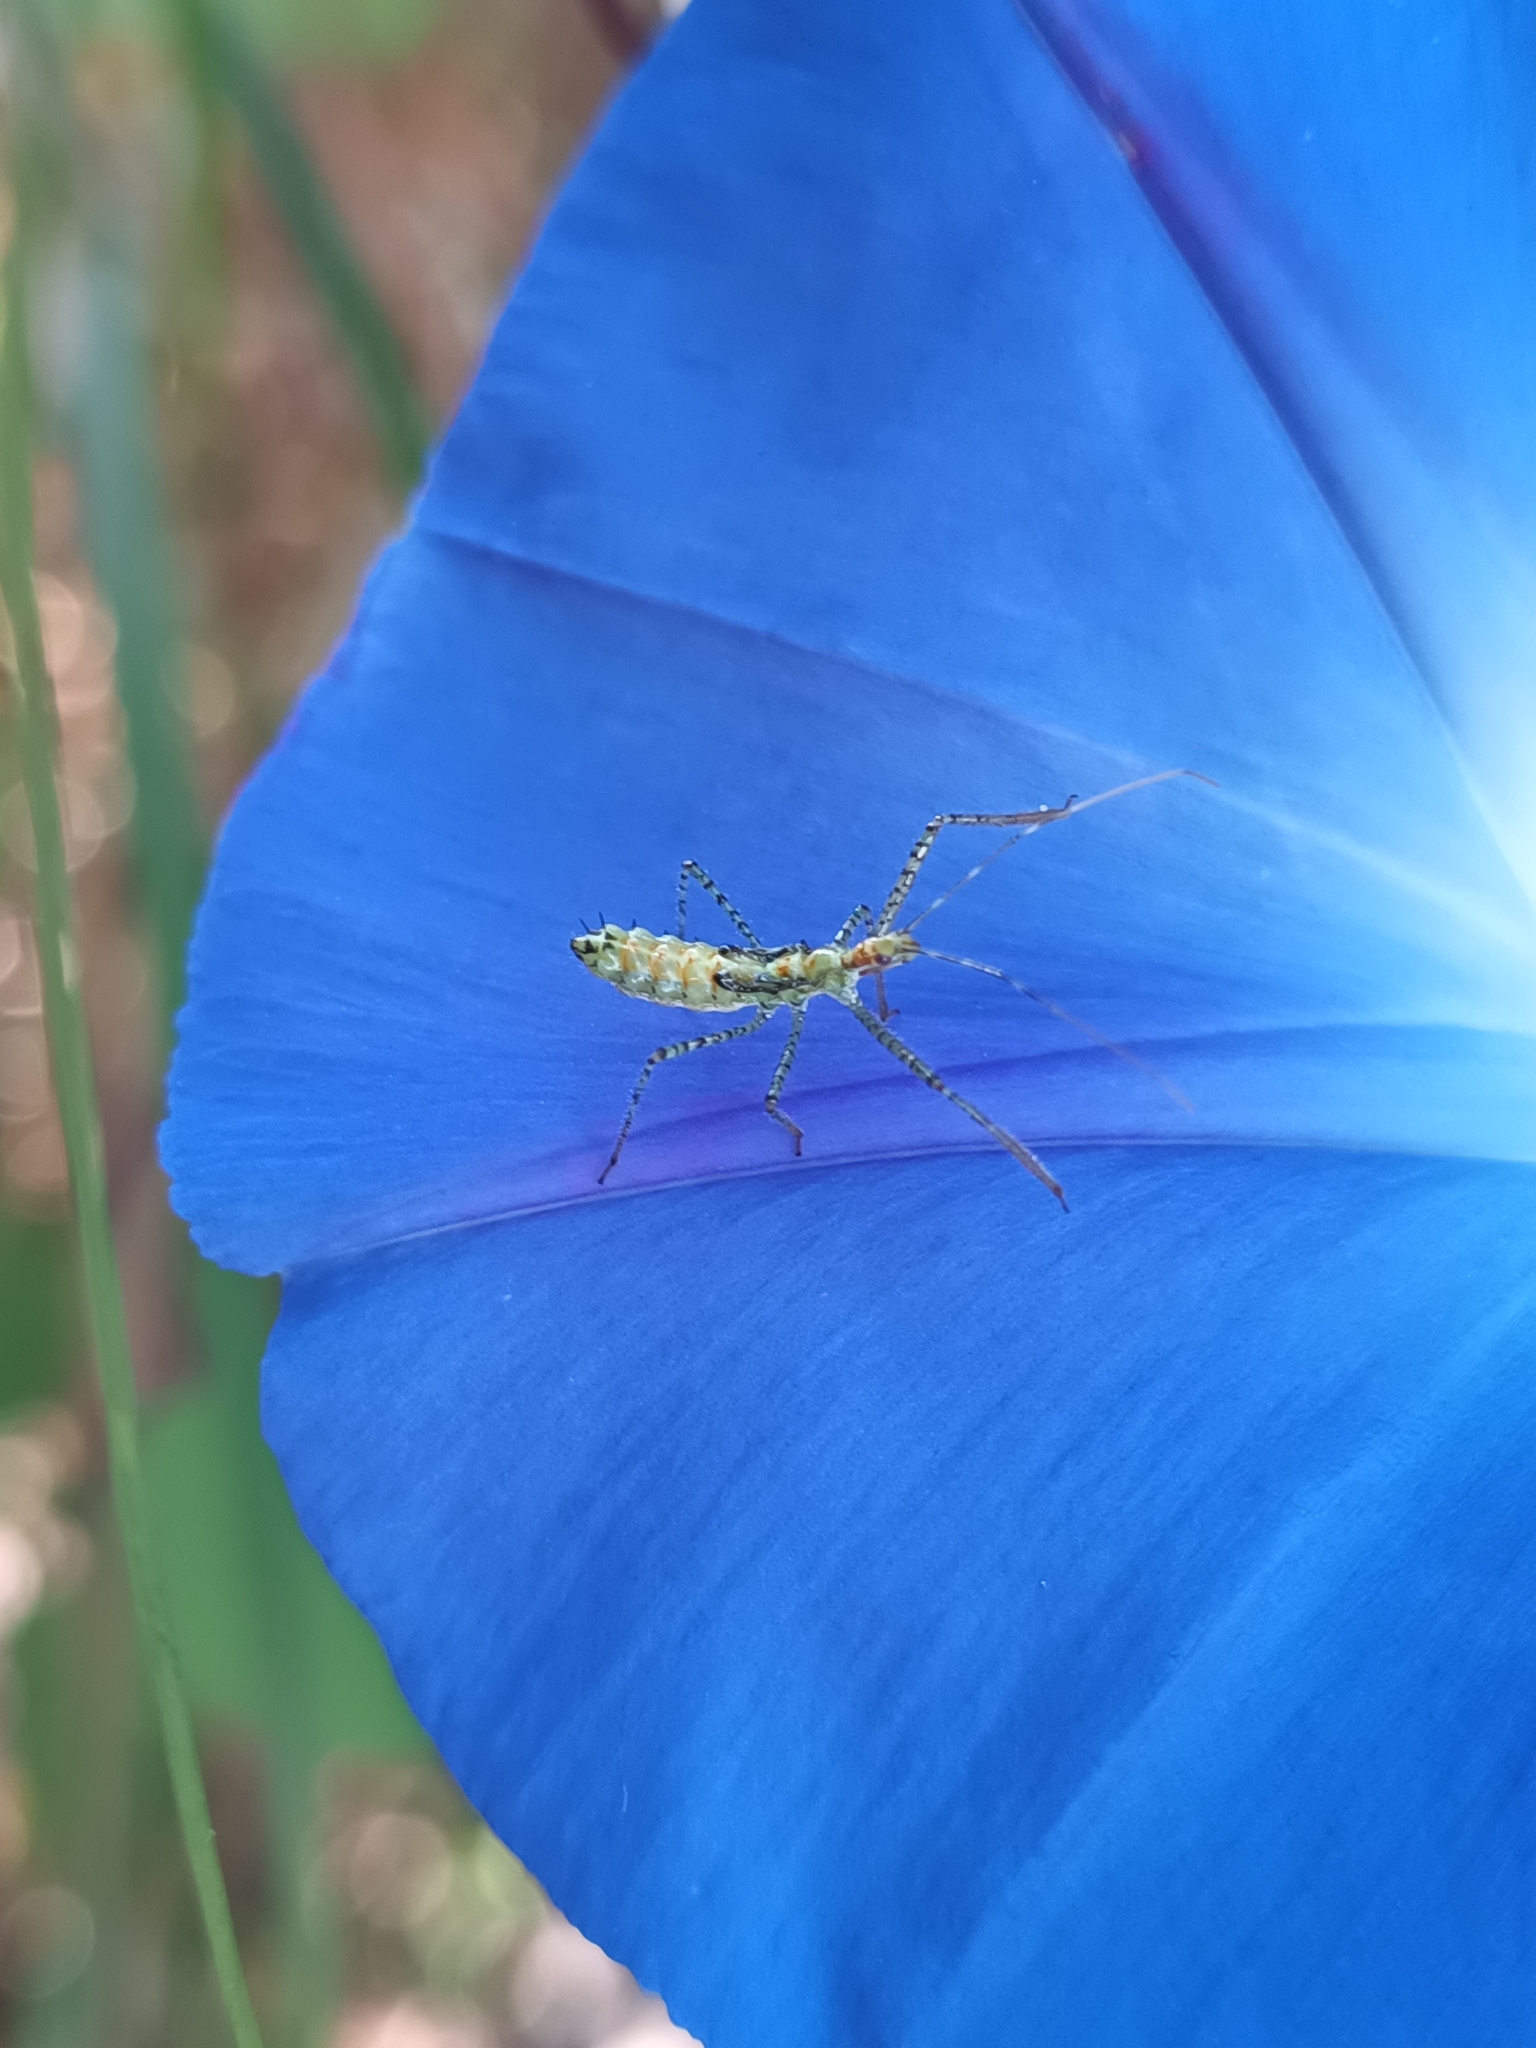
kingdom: Animalia
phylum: Arthropoda
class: Insecta
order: Hemiptera
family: Reduviidae
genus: Zelus
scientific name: Zelus renardii
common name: Assassin bug
